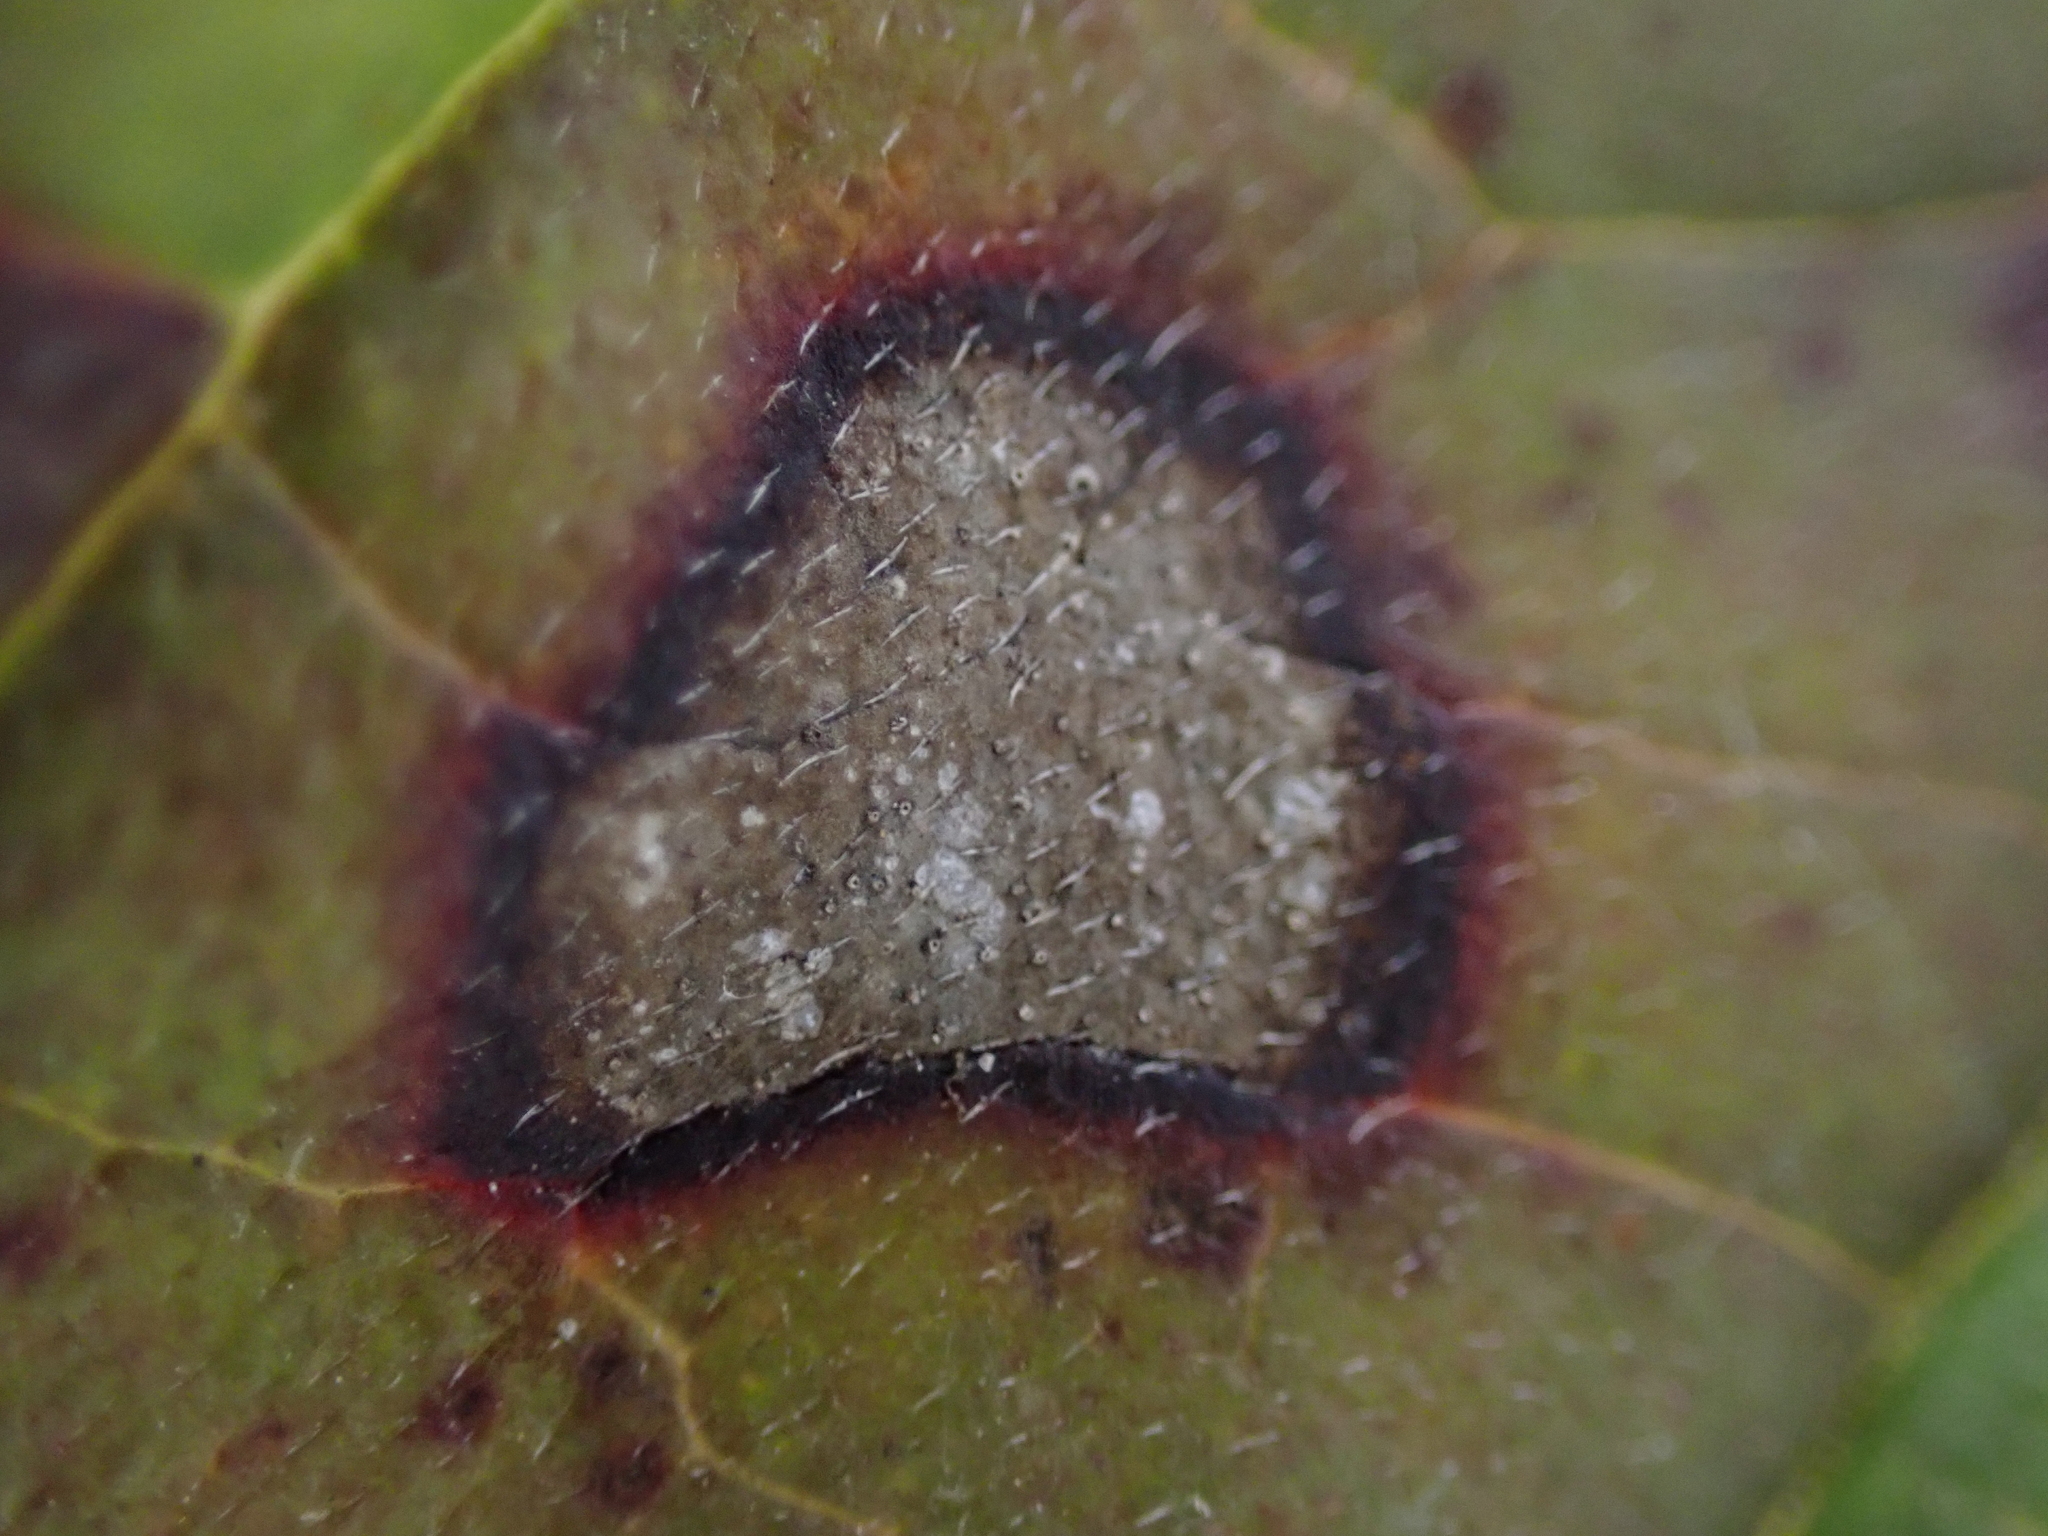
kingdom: Fungi
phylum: Ascomycota
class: Dothideomycetes
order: Mycosphaerellales
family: Mycosphaerellaceae
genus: Sphaerulina
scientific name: Sphaerulina cornicola
